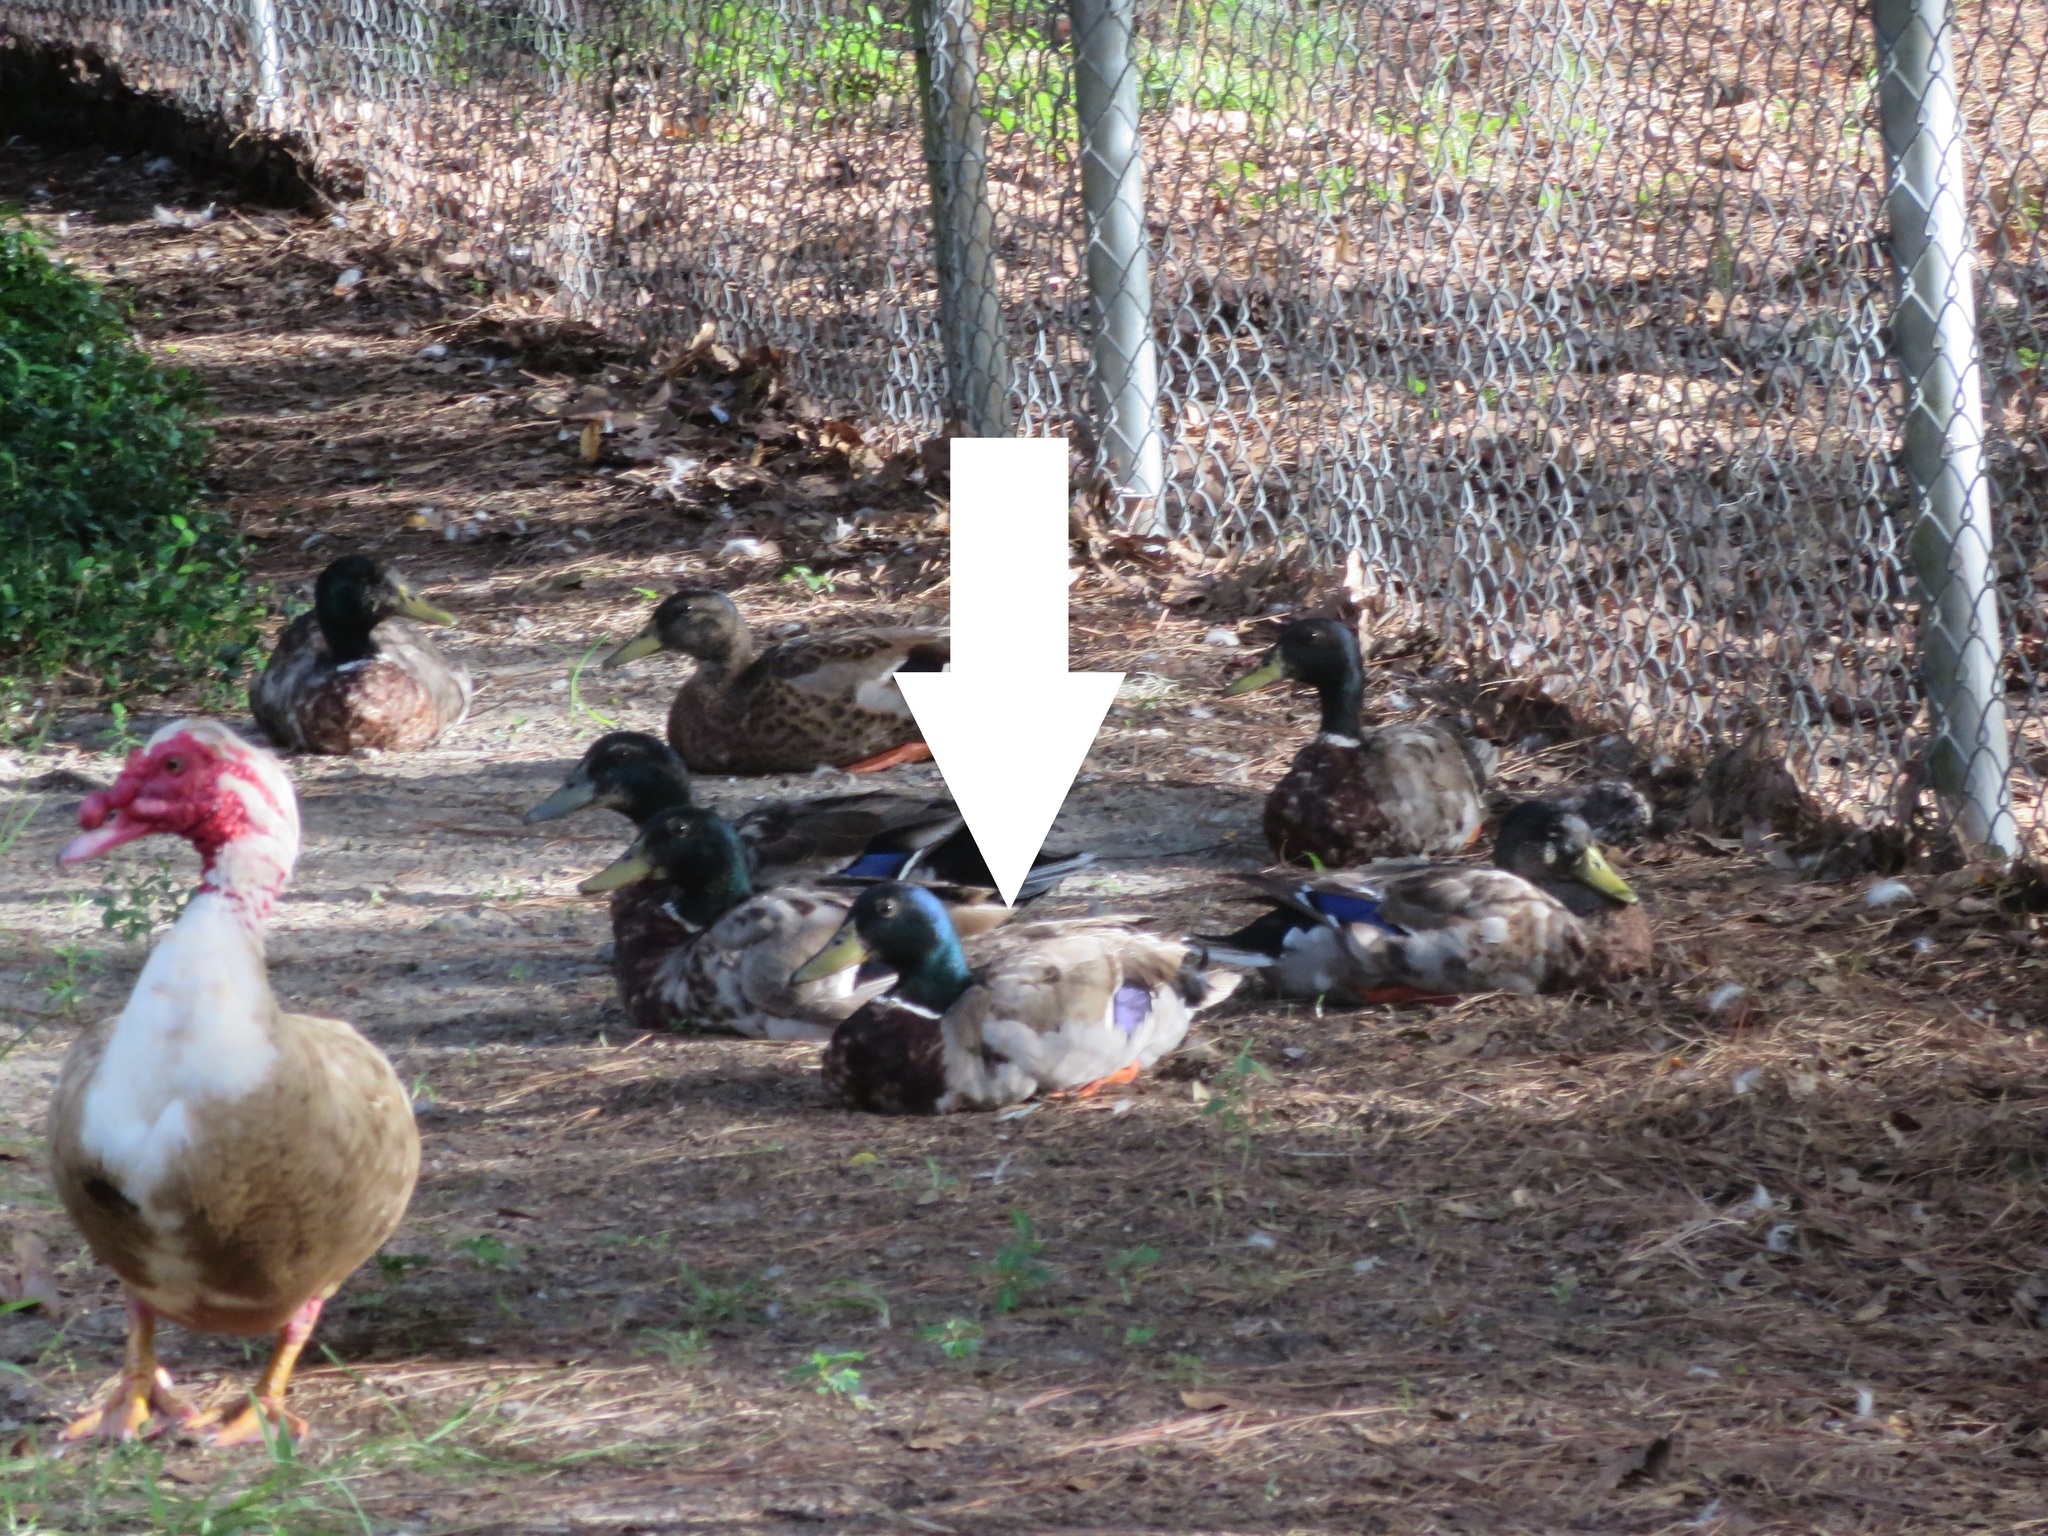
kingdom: Animalia
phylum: Chordata
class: Aves
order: Anseriformes
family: Anatidae
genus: Anas
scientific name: Anas platyrhynchos
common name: Mallard
